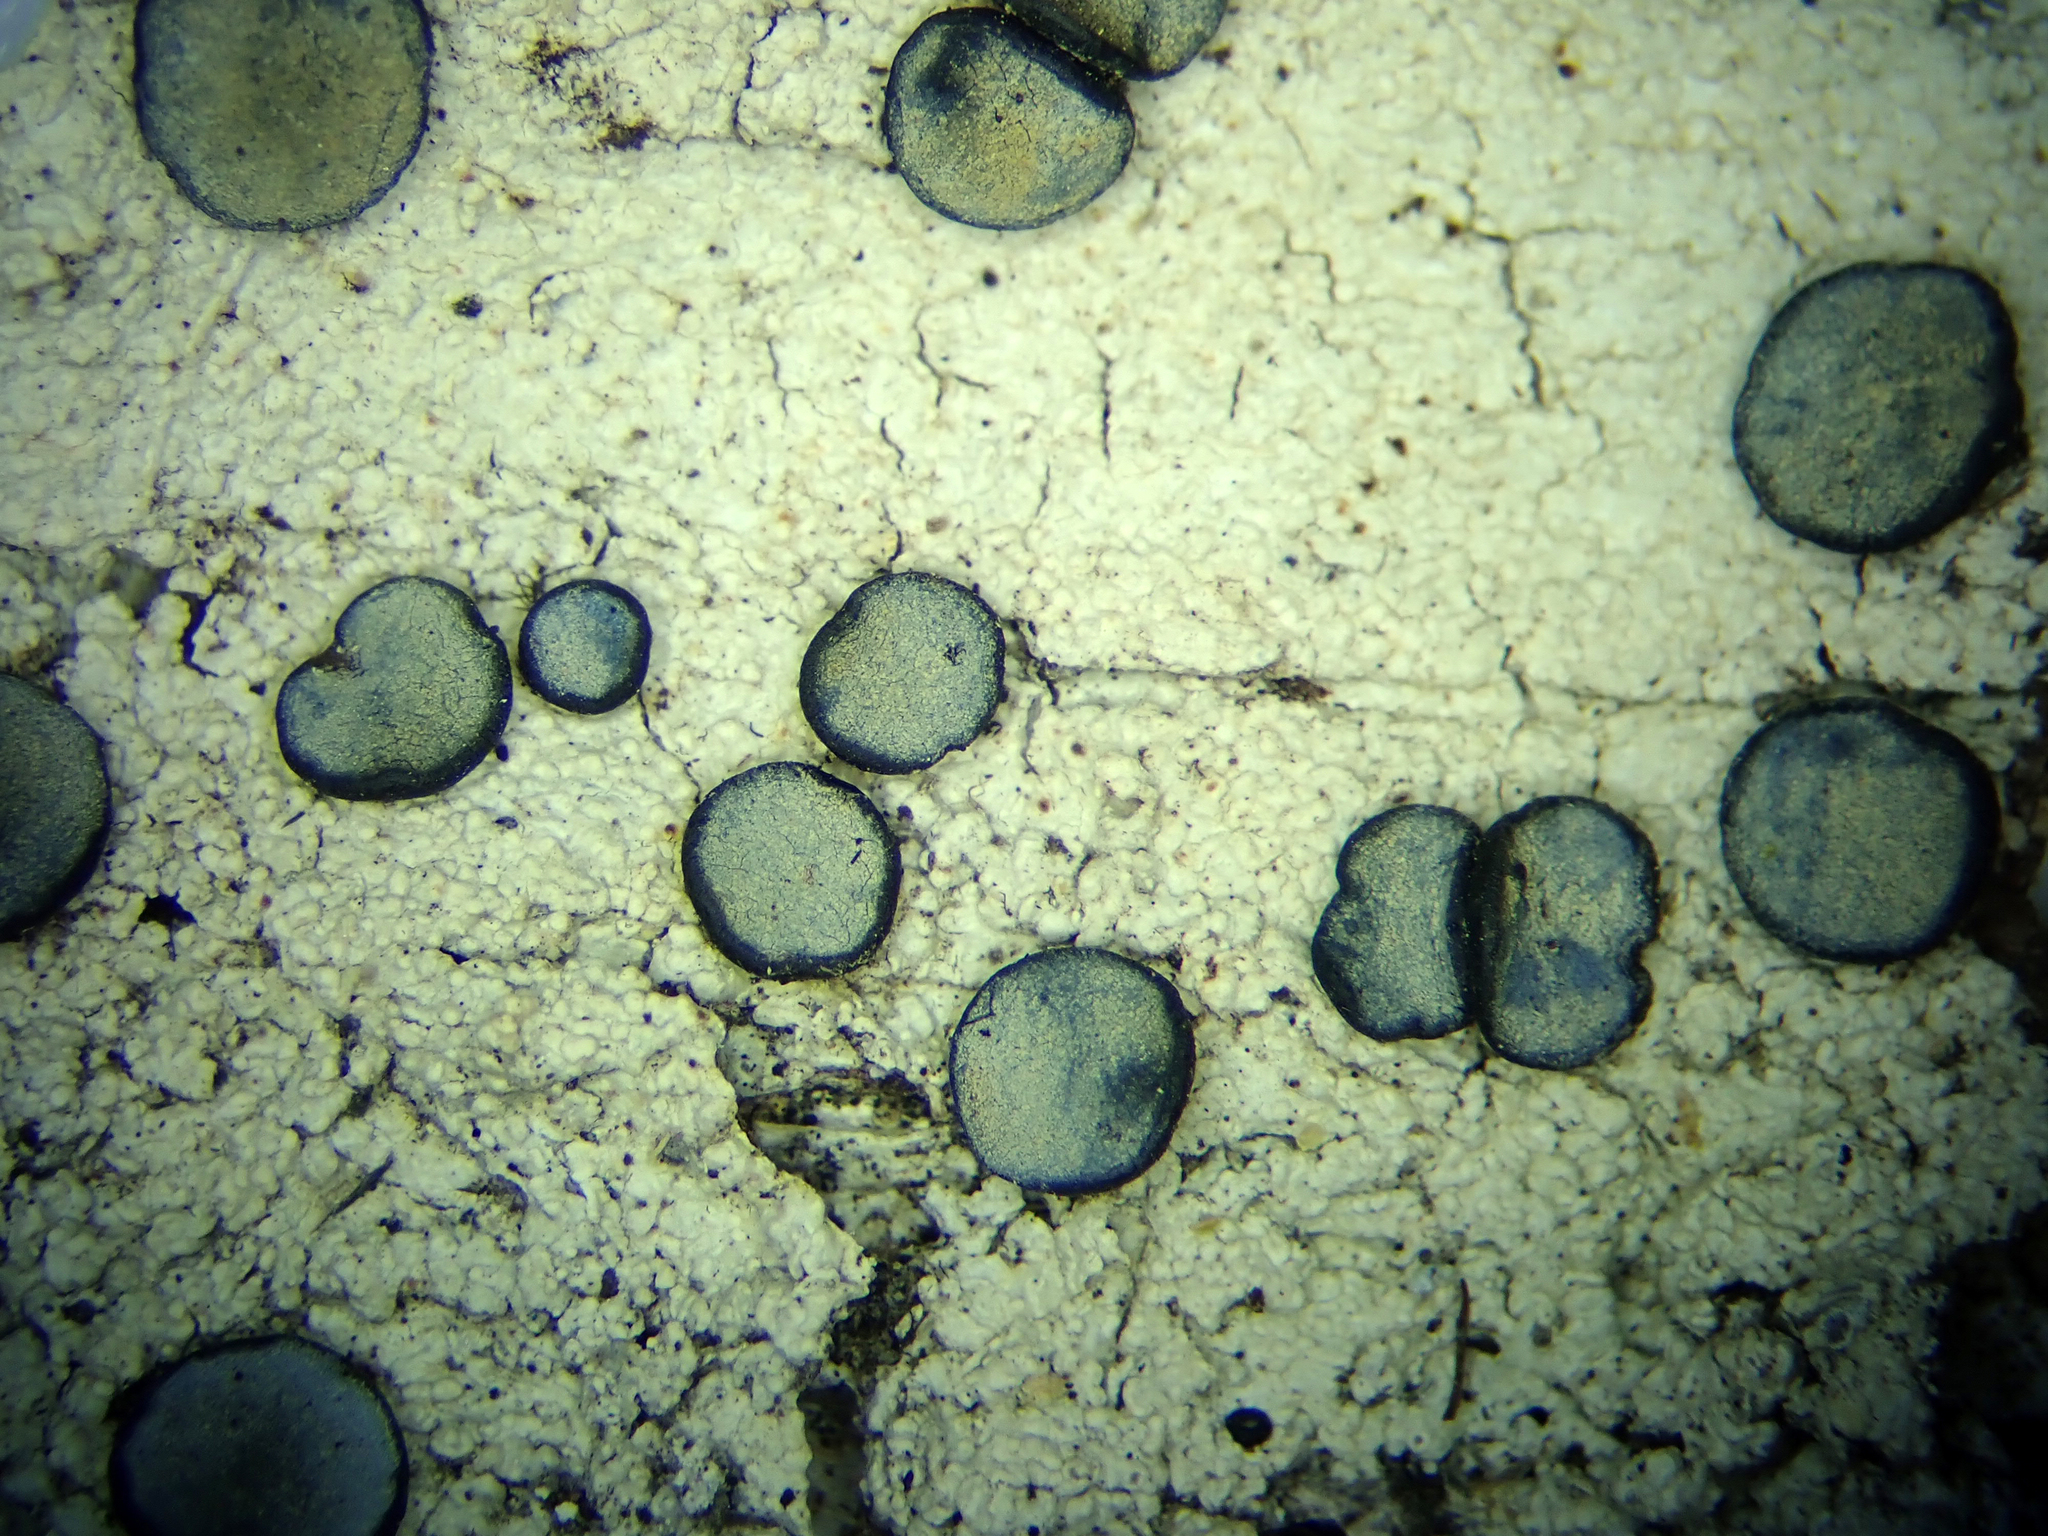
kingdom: Fungi
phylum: Ascomycota
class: Lecanoromycetes
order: Teloschistales
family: Megalosporaceae
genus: Megalospora
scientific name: Megalospora gompholoma
